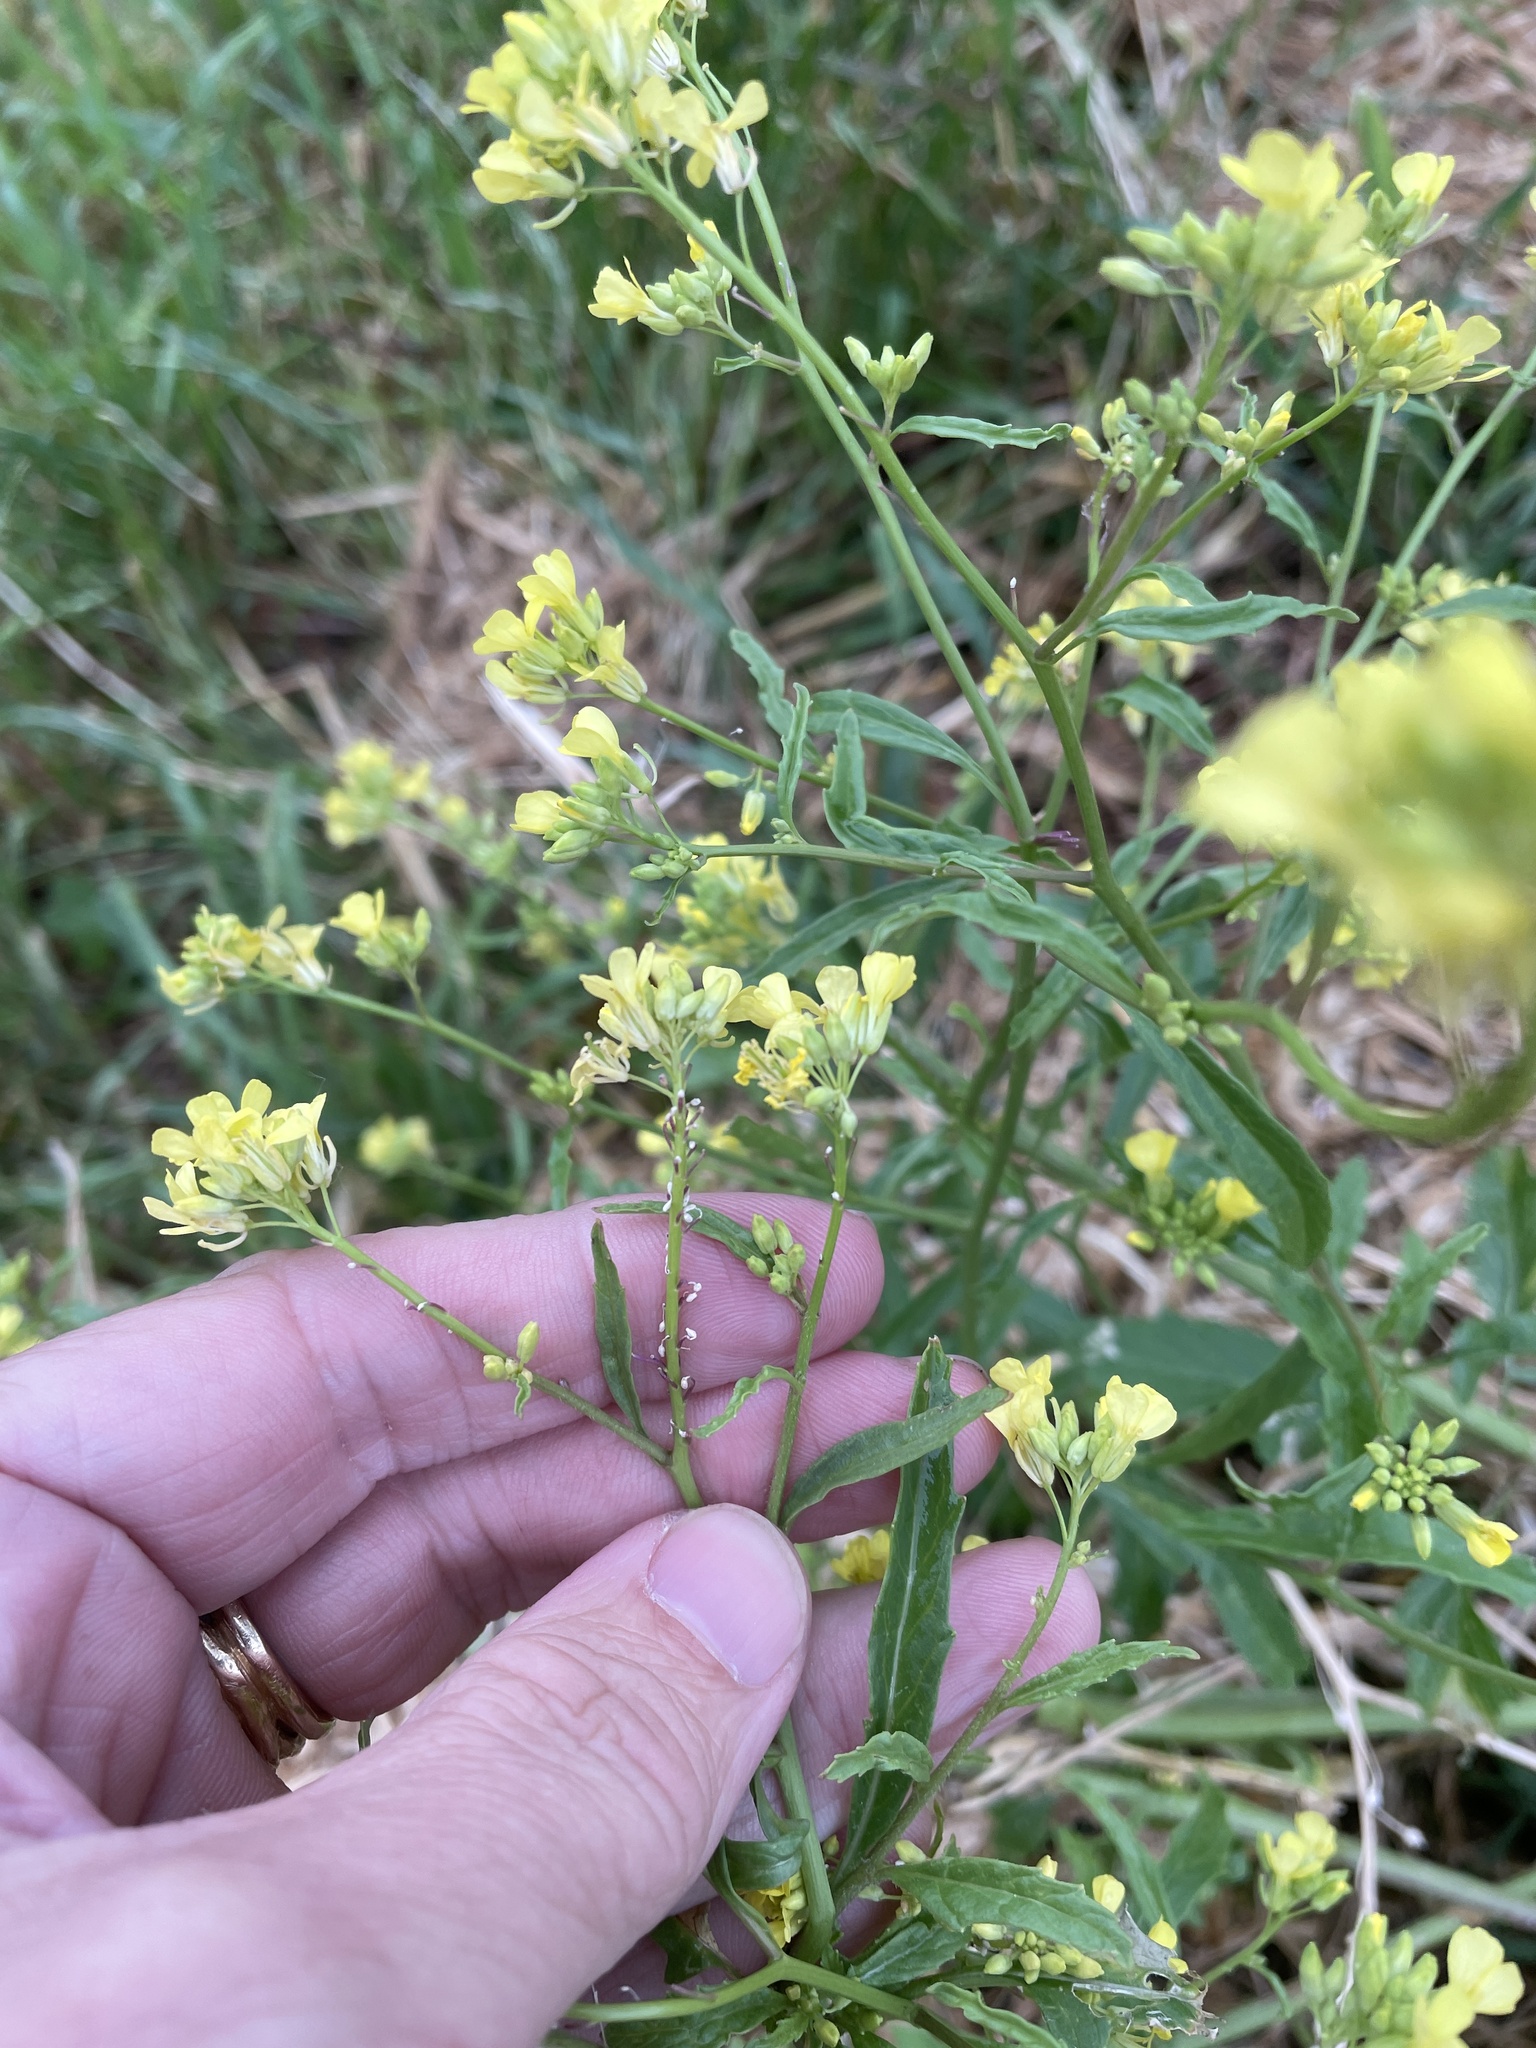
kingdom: Plantae
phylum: Tracheophyta
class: Magnoliopsida
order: Brassicales
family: Brassicaceae
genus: Rapistrum
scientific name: Rapistrum rugosum
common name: Annual bastardcabbage
